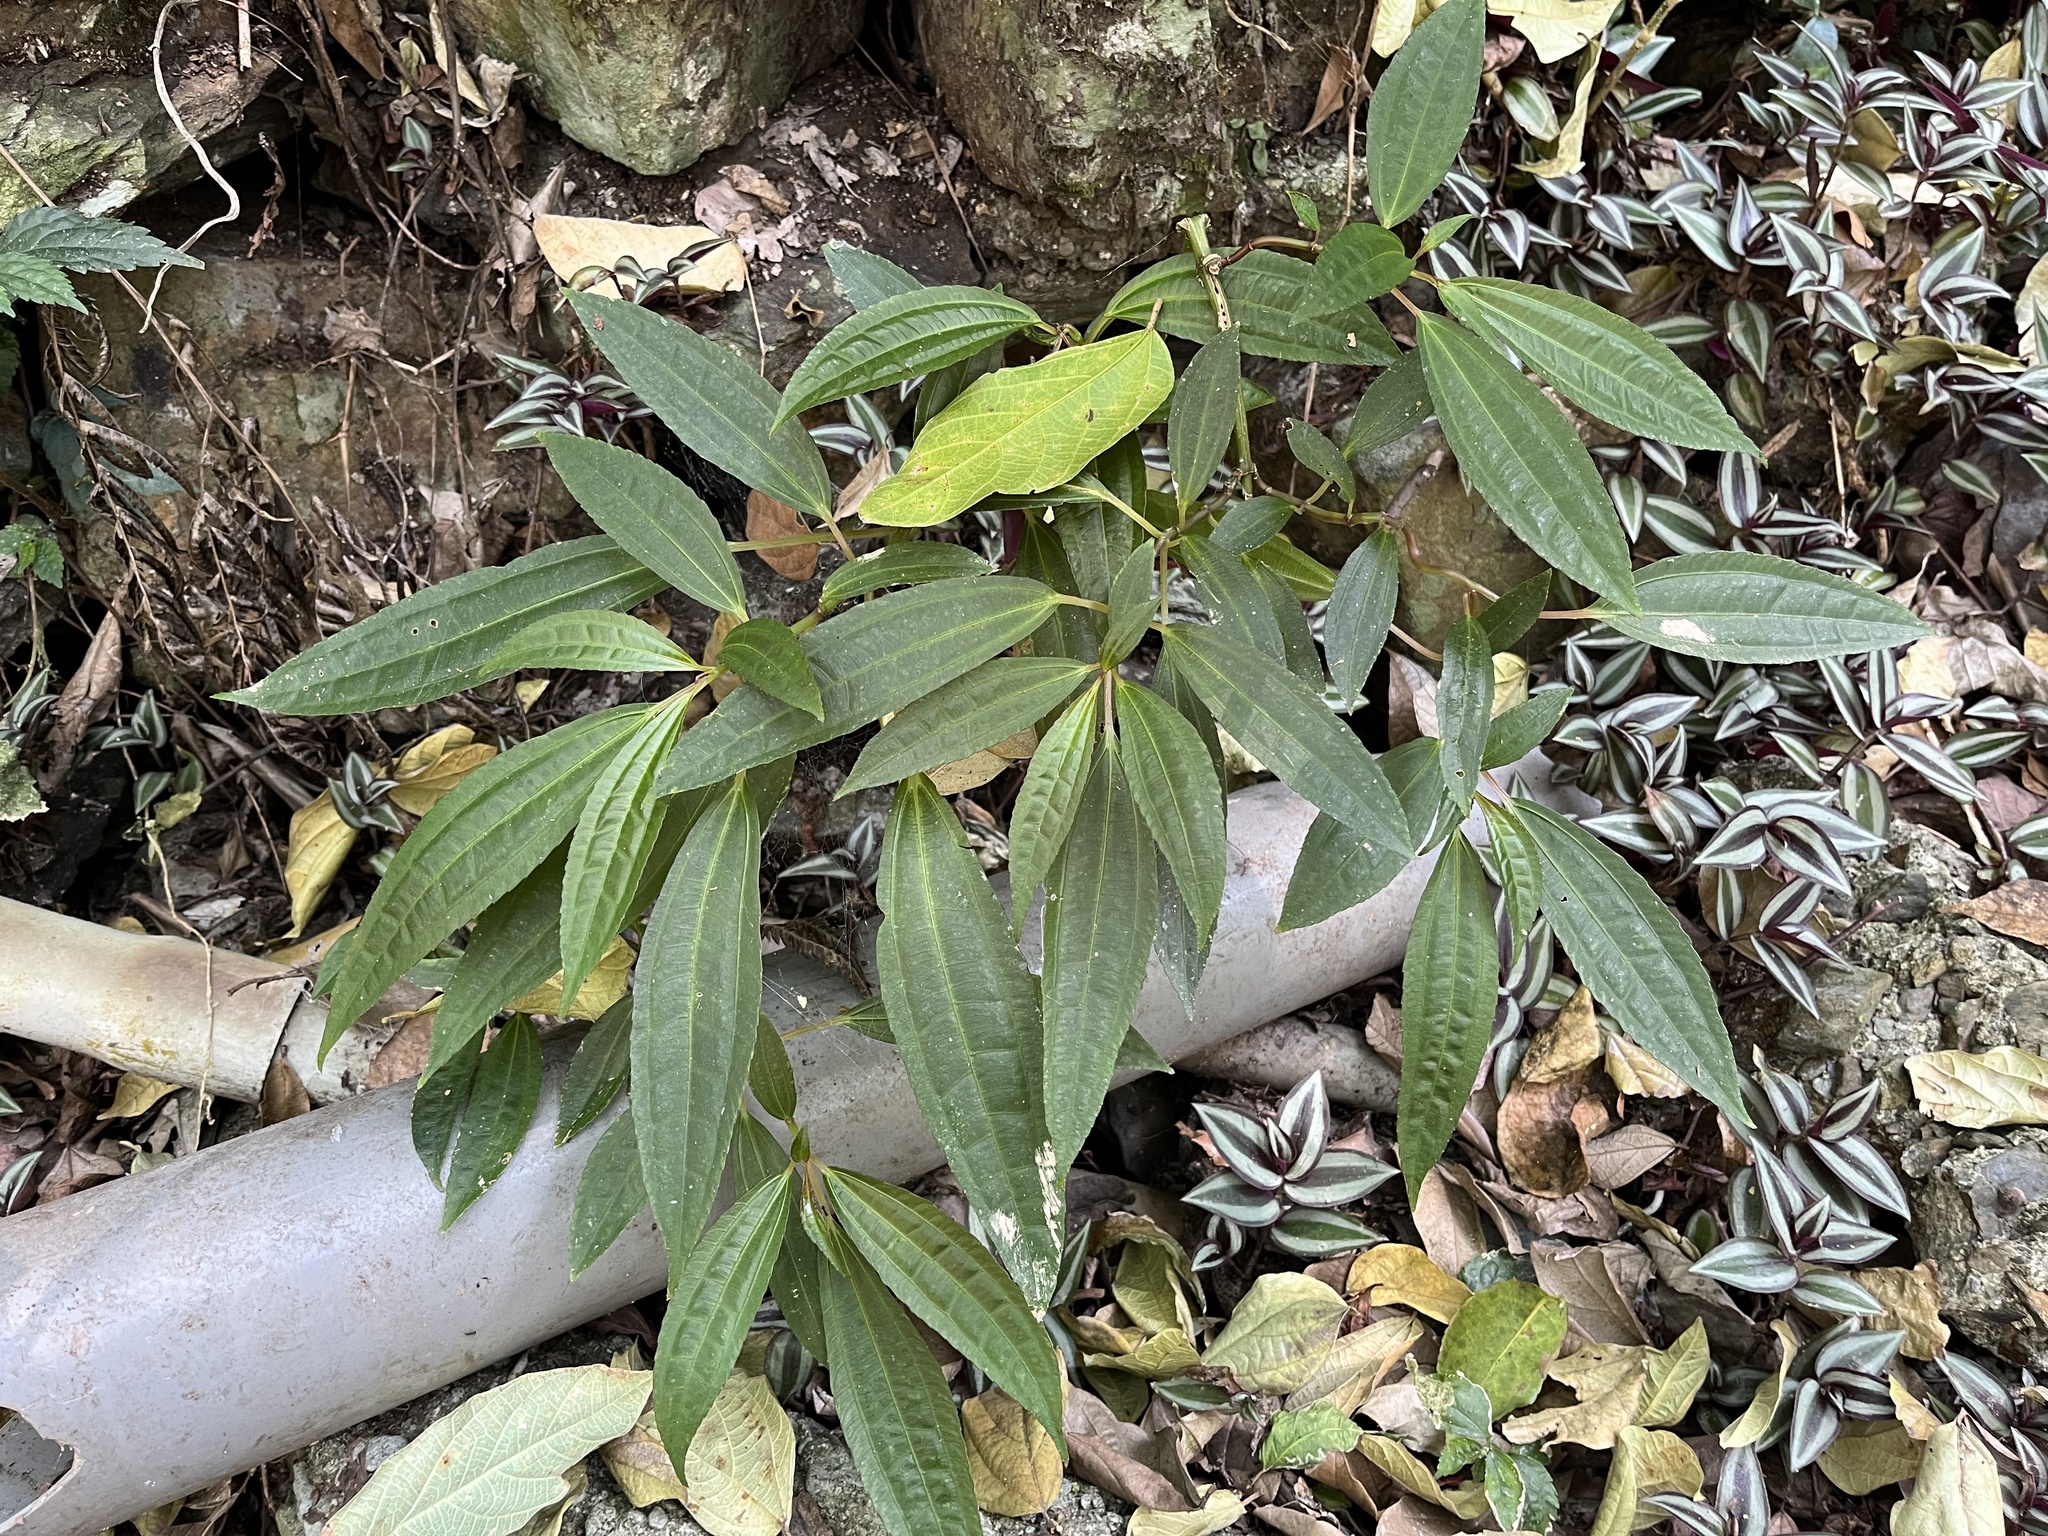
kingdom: Plantae
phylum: Tracheophyta
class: Magnoliopsida
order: Rosales
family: Urticaceae
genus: Pilea
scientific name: Pilea rotundinucula
